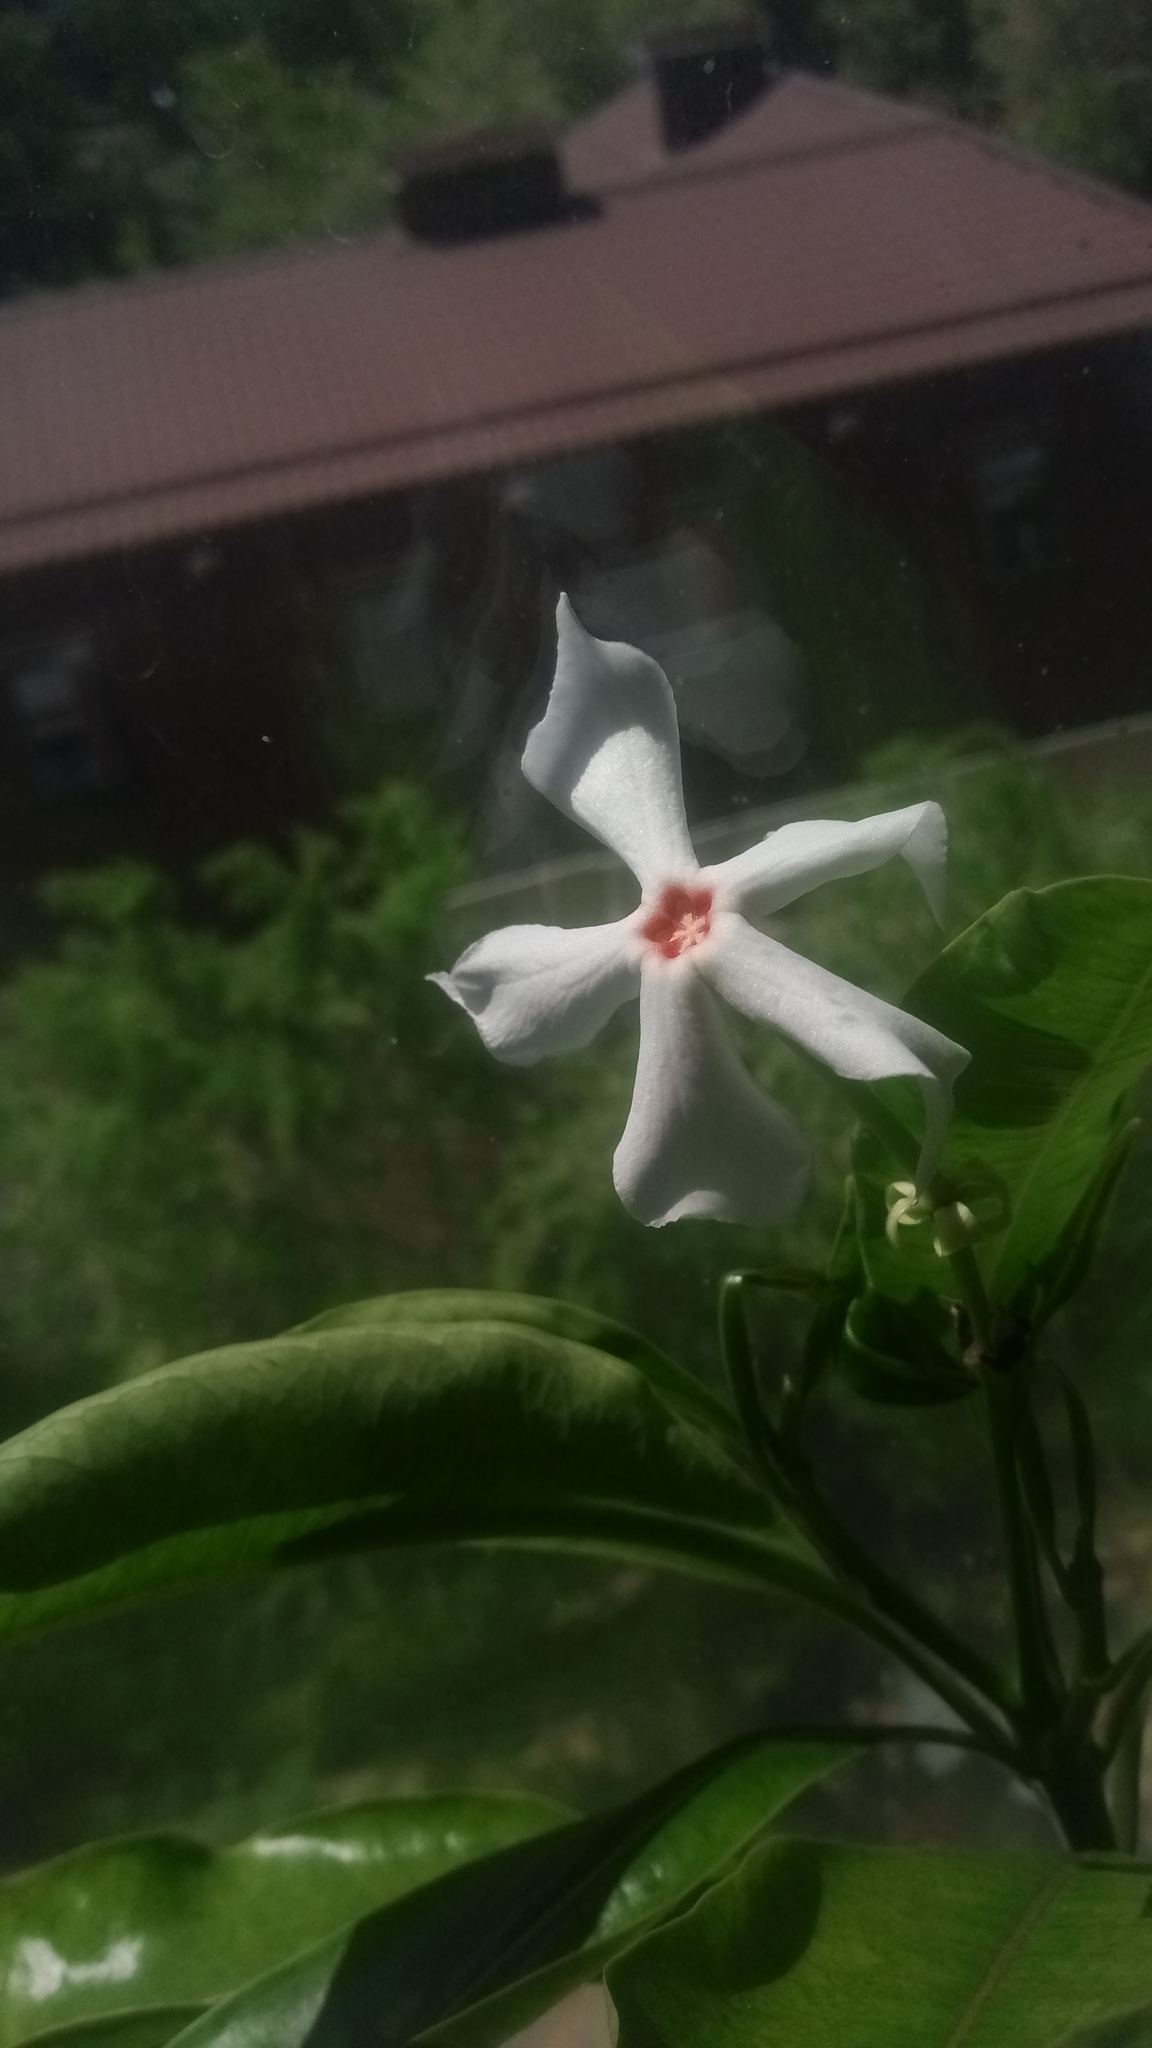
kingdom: Plantae
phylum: Tracheophyta
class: Magnoliopsida
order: Gentianales
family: Apocynaceae
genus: Cerbera
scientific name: Cerbera manghas
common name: Reva
